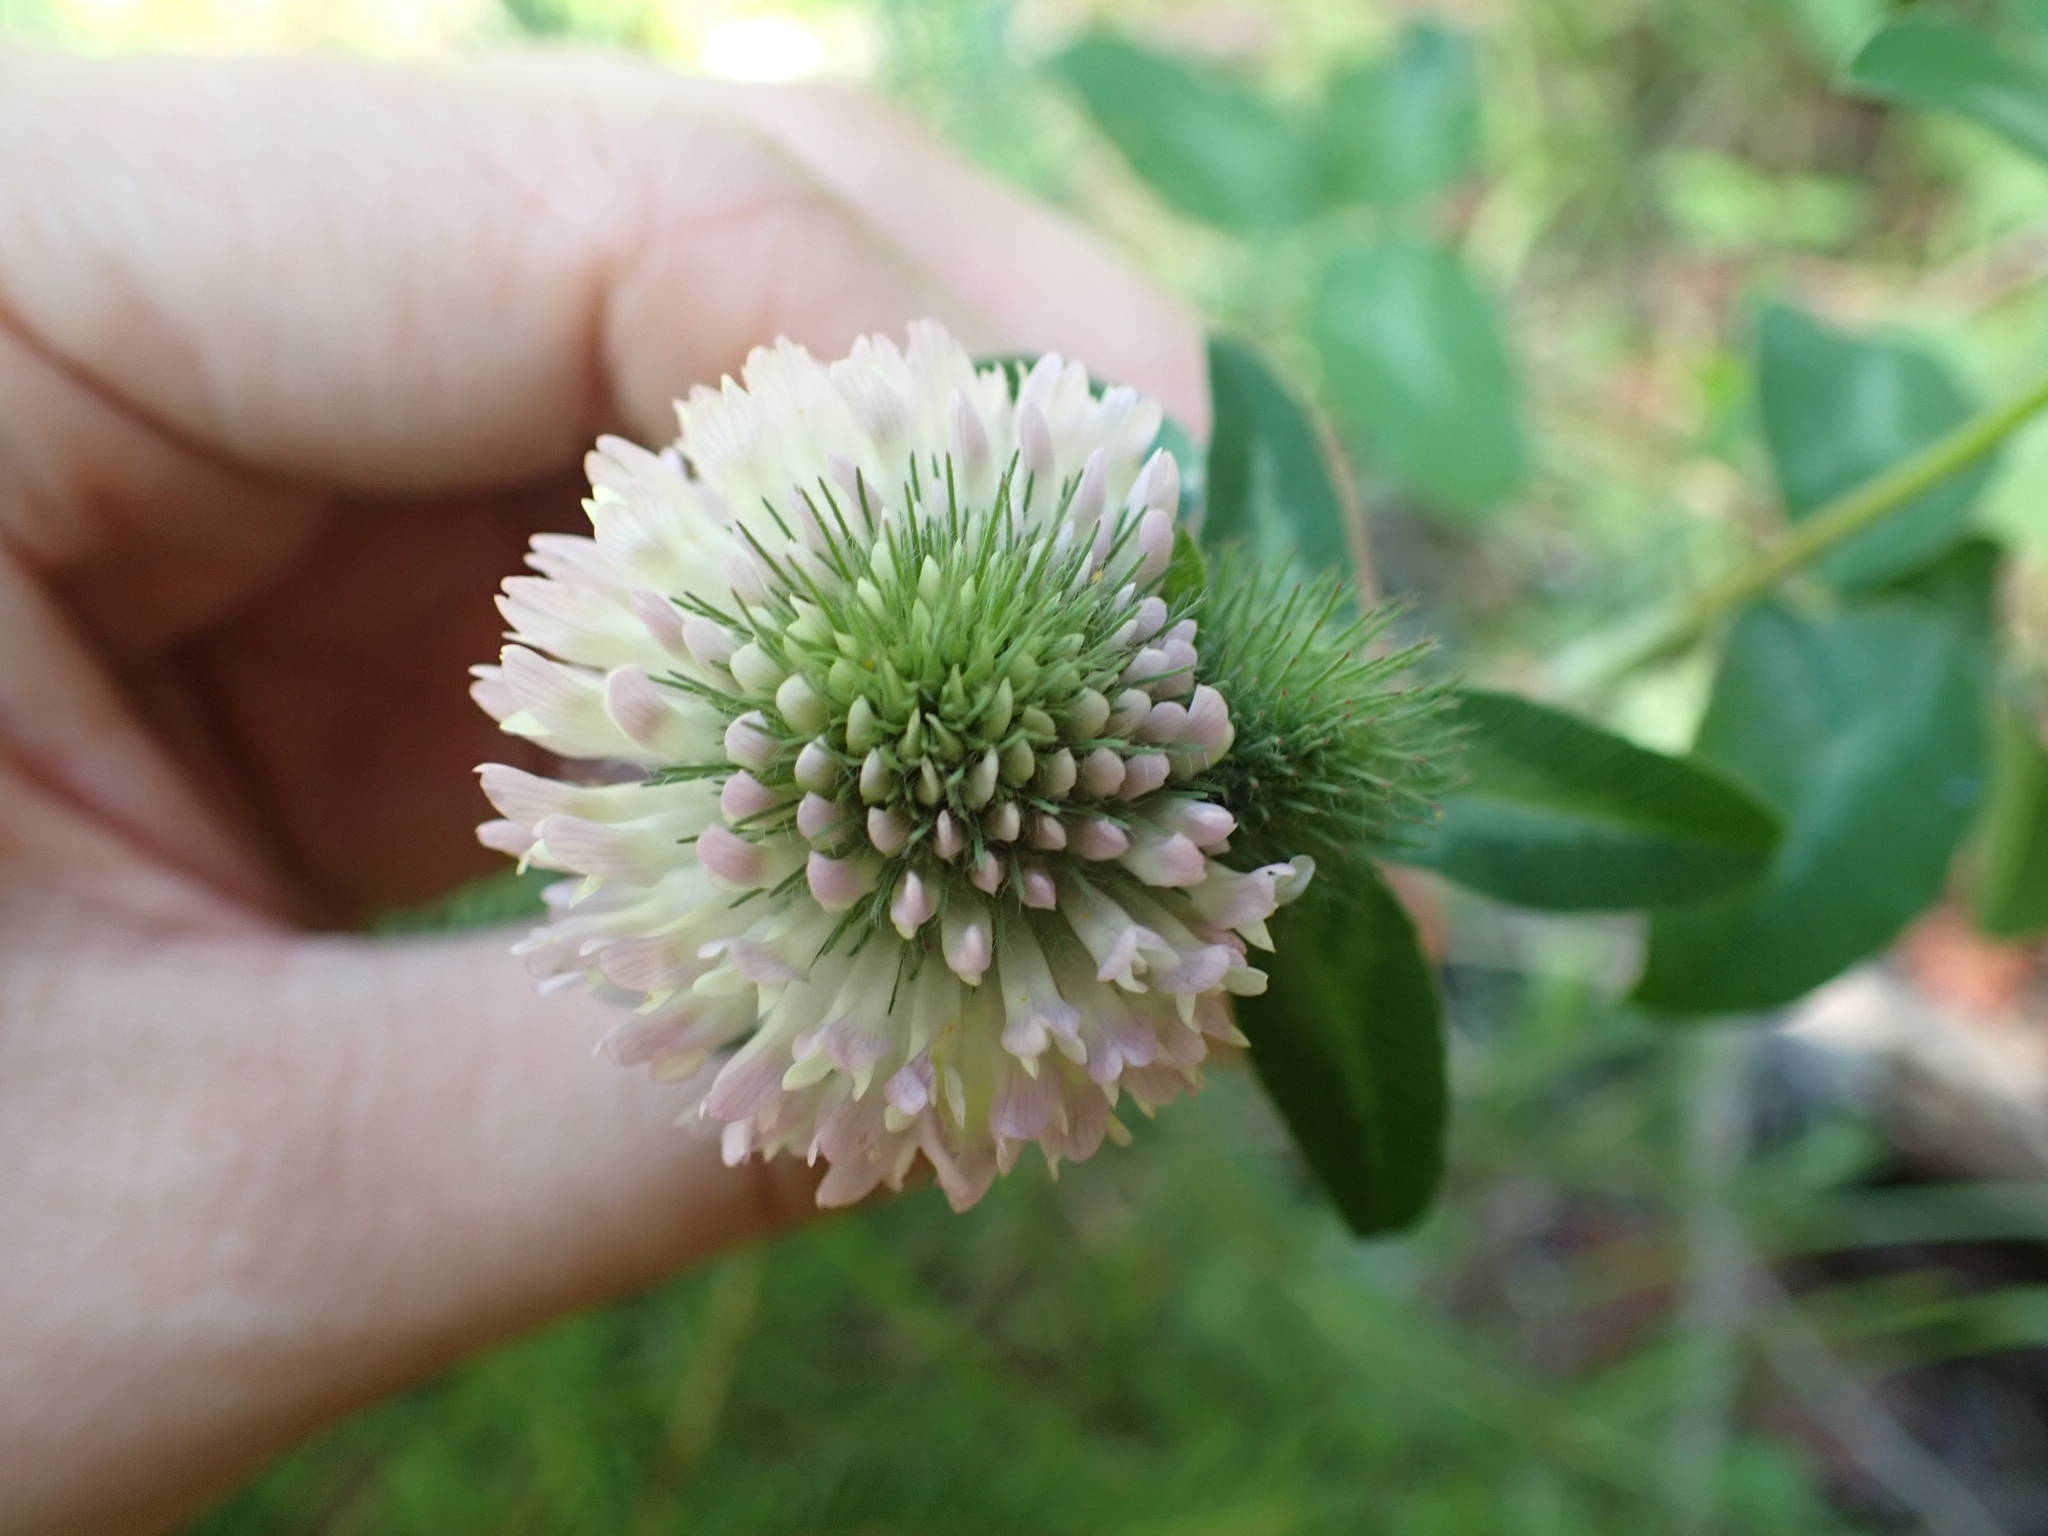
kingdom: Plantae
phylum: Tracheophyta
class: Magnoliopsida
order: Fabales
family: Fabaceae
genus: Trifolium
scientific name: Trifolium pratense
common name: Red clover
